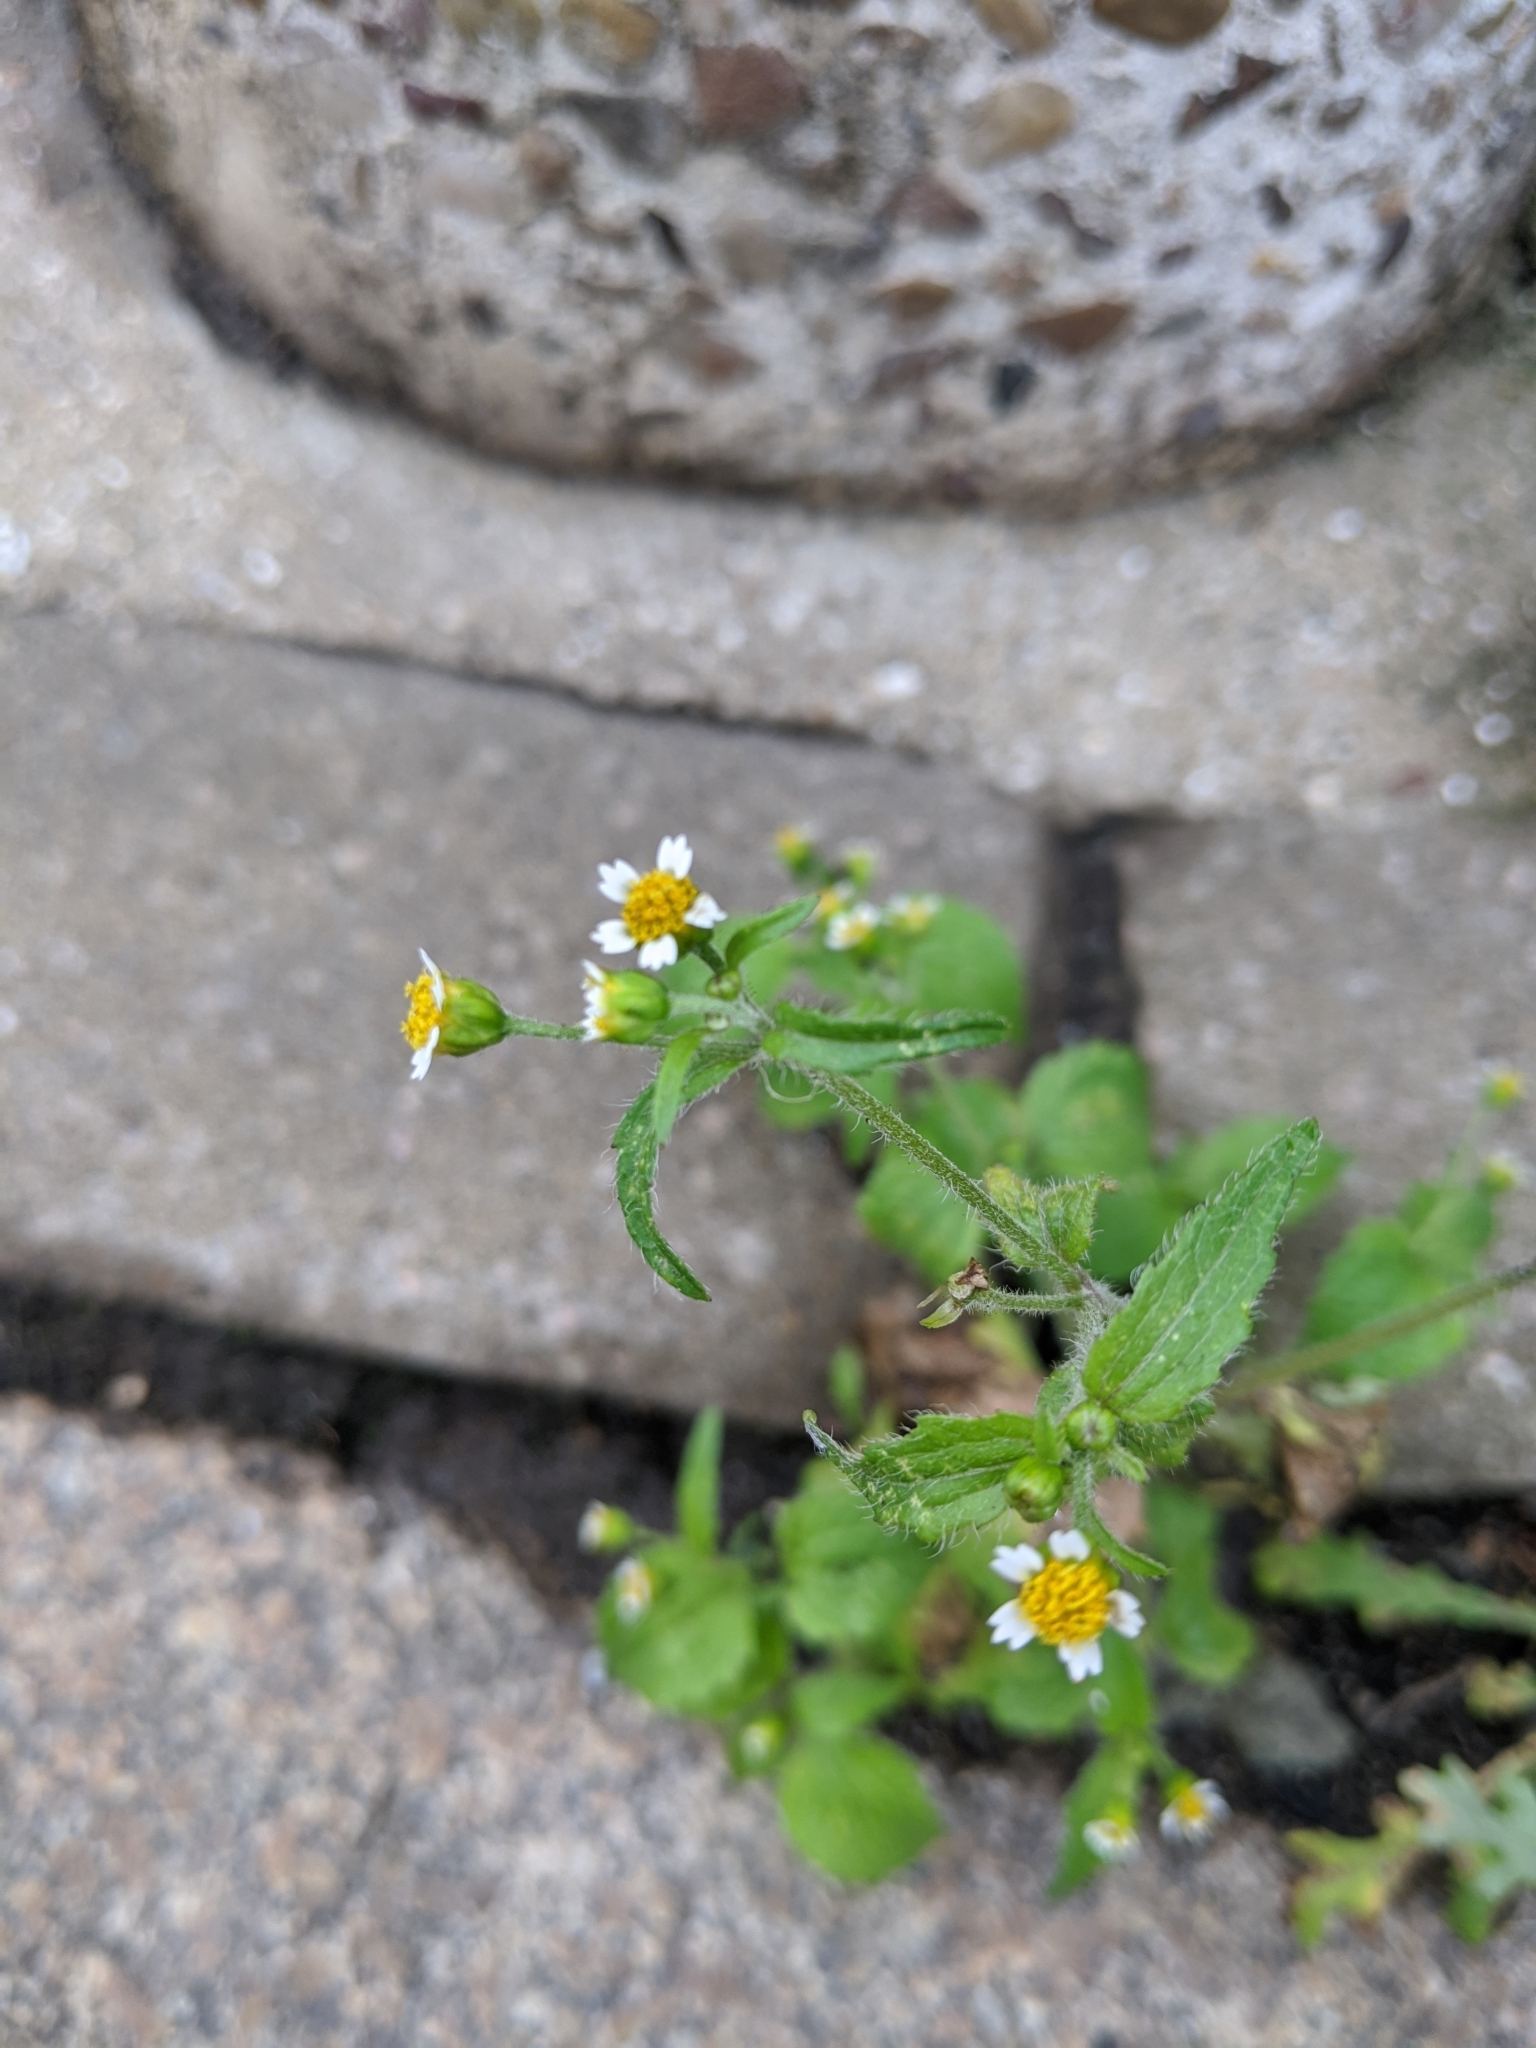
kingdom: Plantae
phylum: Tracheophyta
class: Magnoliopsida
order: Asterales
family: Asteraceae
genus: Galinsoga
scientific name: Galinsoga quadriradiata
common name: Shaggy soldier
